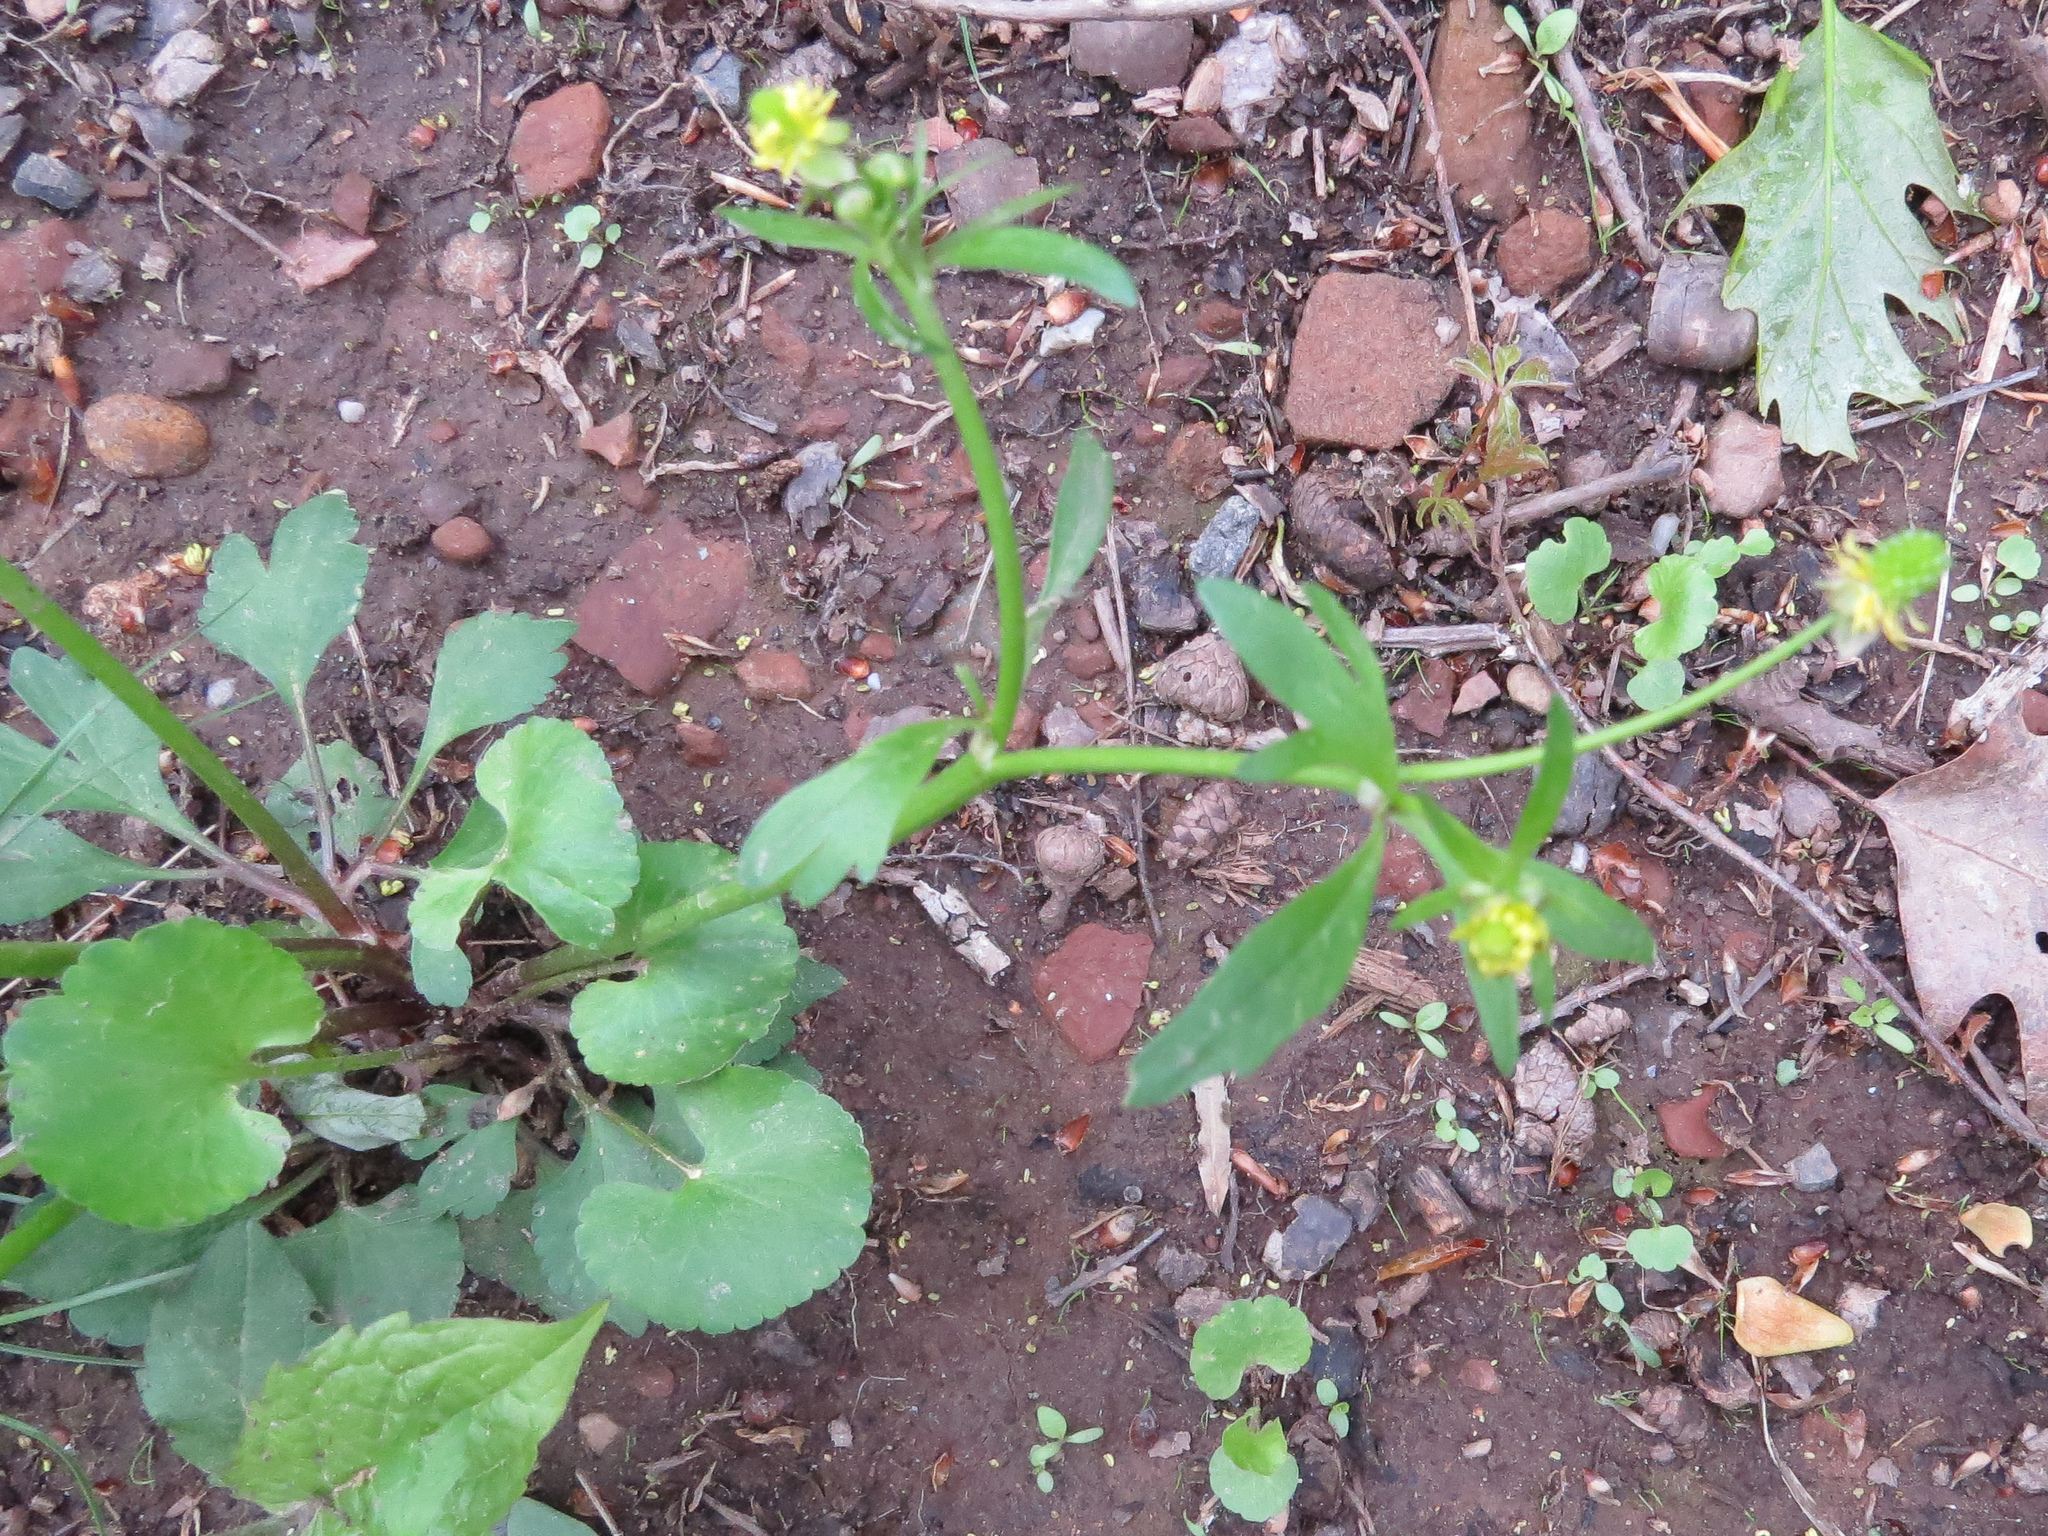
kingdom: Plantae
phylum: Tracheophyta
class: Magnoliopsida
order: Ranunculales
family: Ranunculaceae
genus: Ranunculus
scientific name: Ranunculus abortivus
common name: Early wood buttercup
